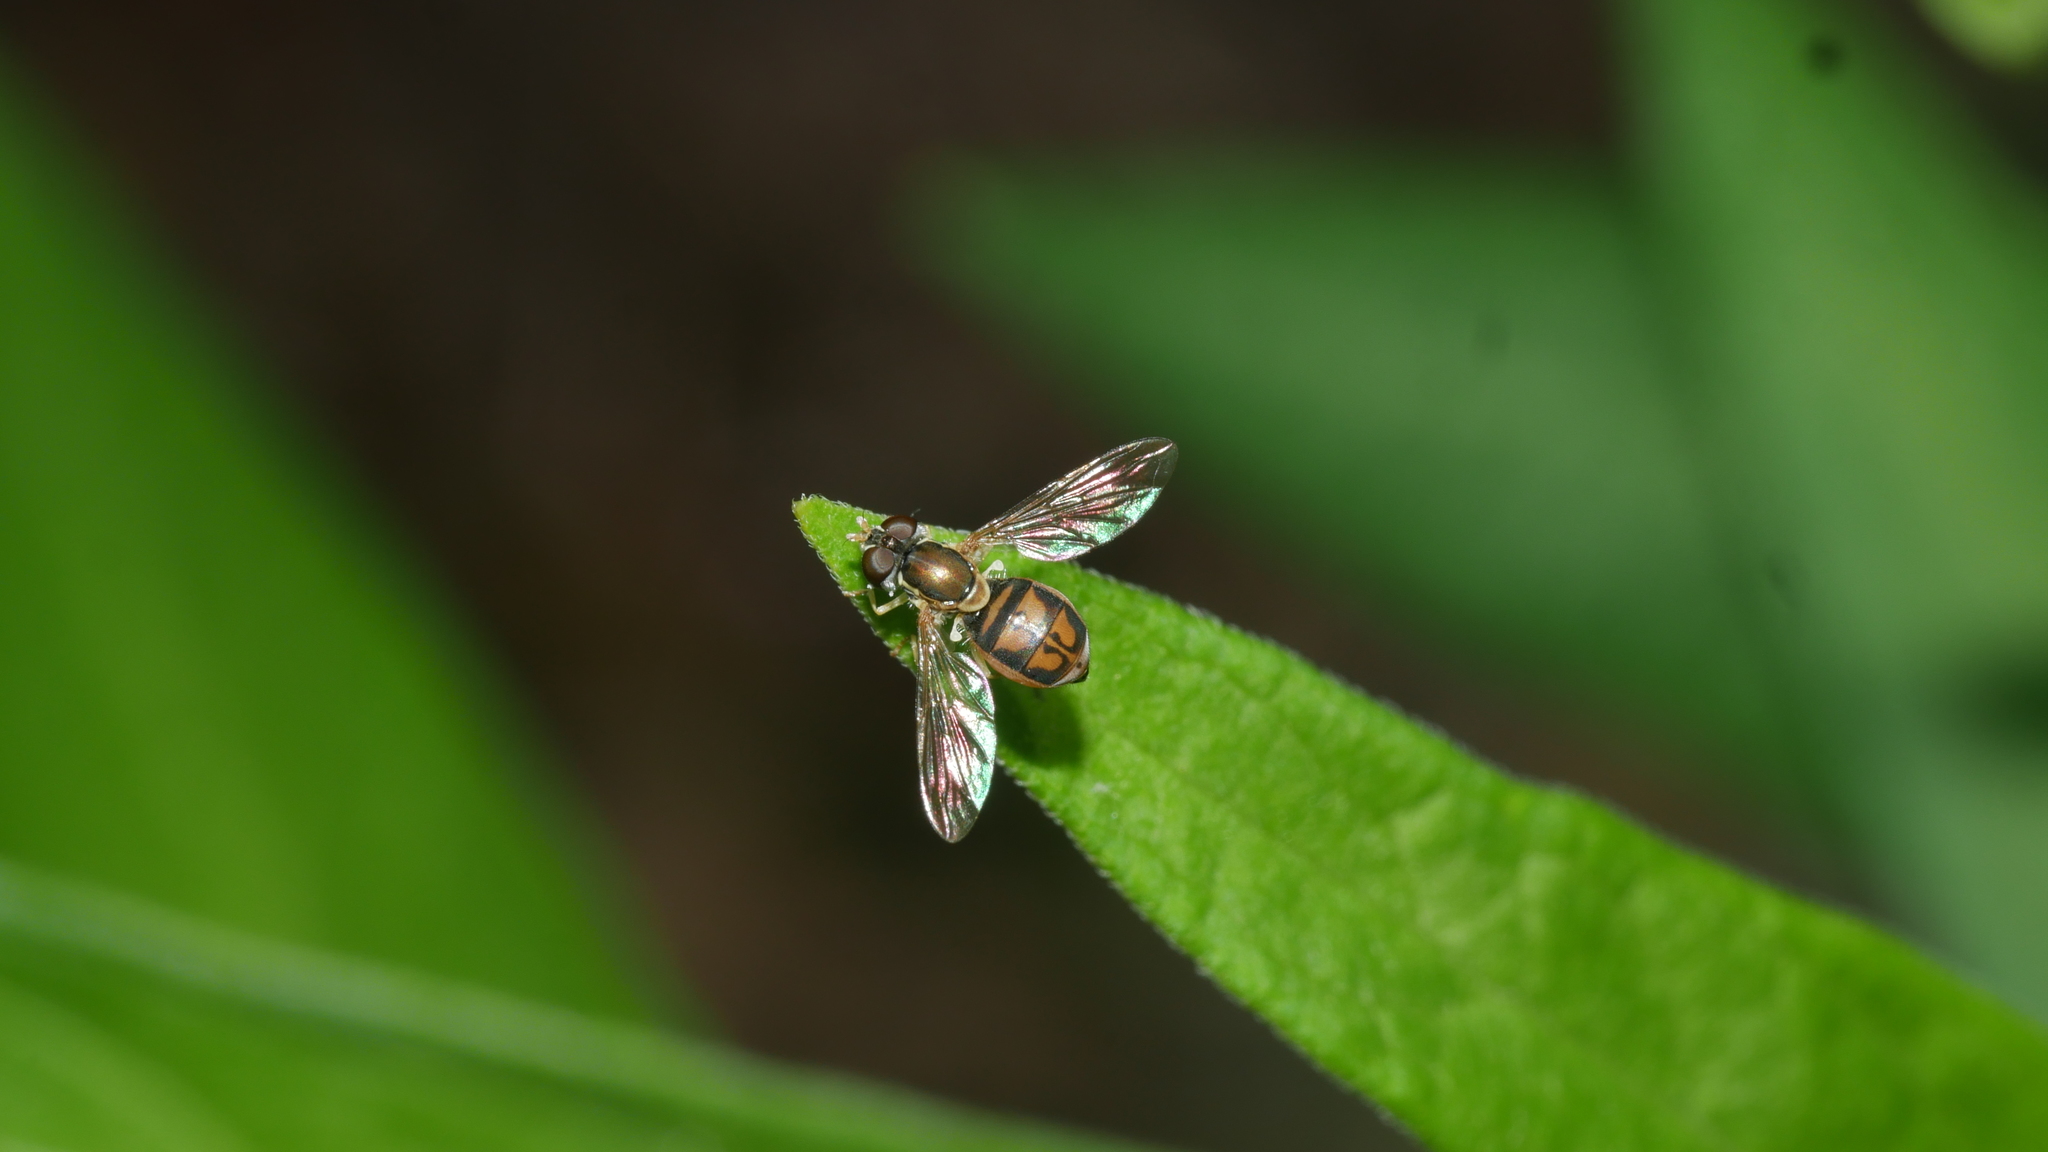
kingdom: Animalia
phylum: Arthropoda
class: Insecta
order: Diptera
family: Syrphidae
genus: Toxomerus
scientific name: Toxomerus marginatus
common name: Syrphid fly
